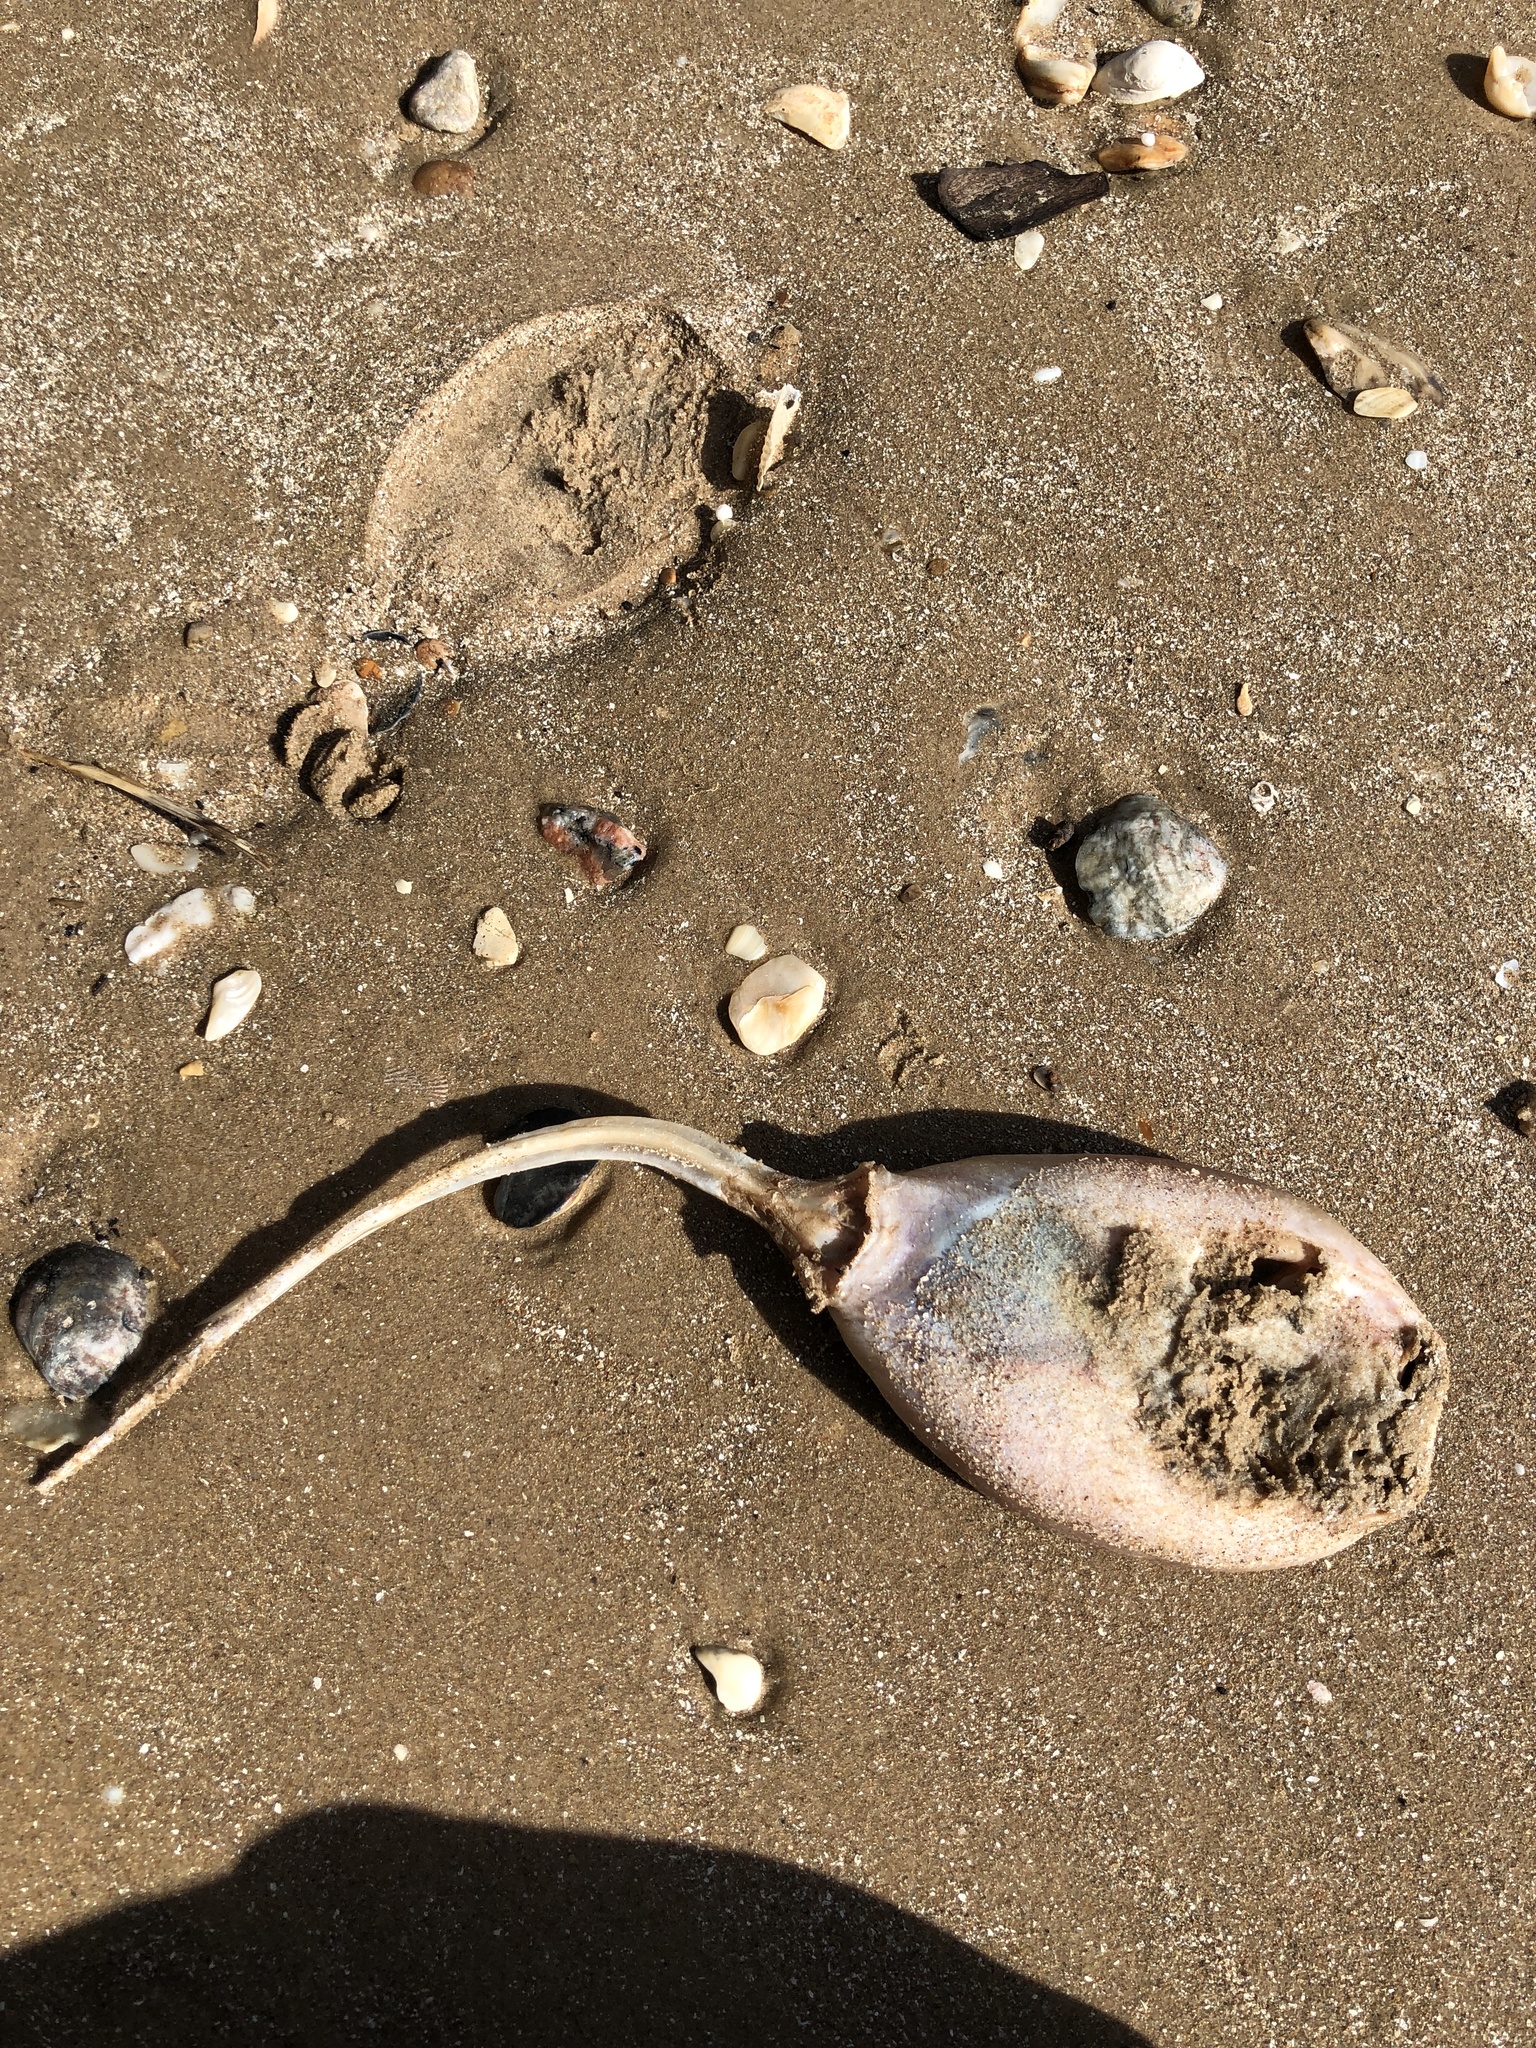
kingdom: Animalia
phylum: Chordata
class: Elasmobranchii
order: Myliobatiformes
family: Dasyatidae
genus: Hypanus
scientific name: Hypanus sabinus
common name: Atlantic stingray
